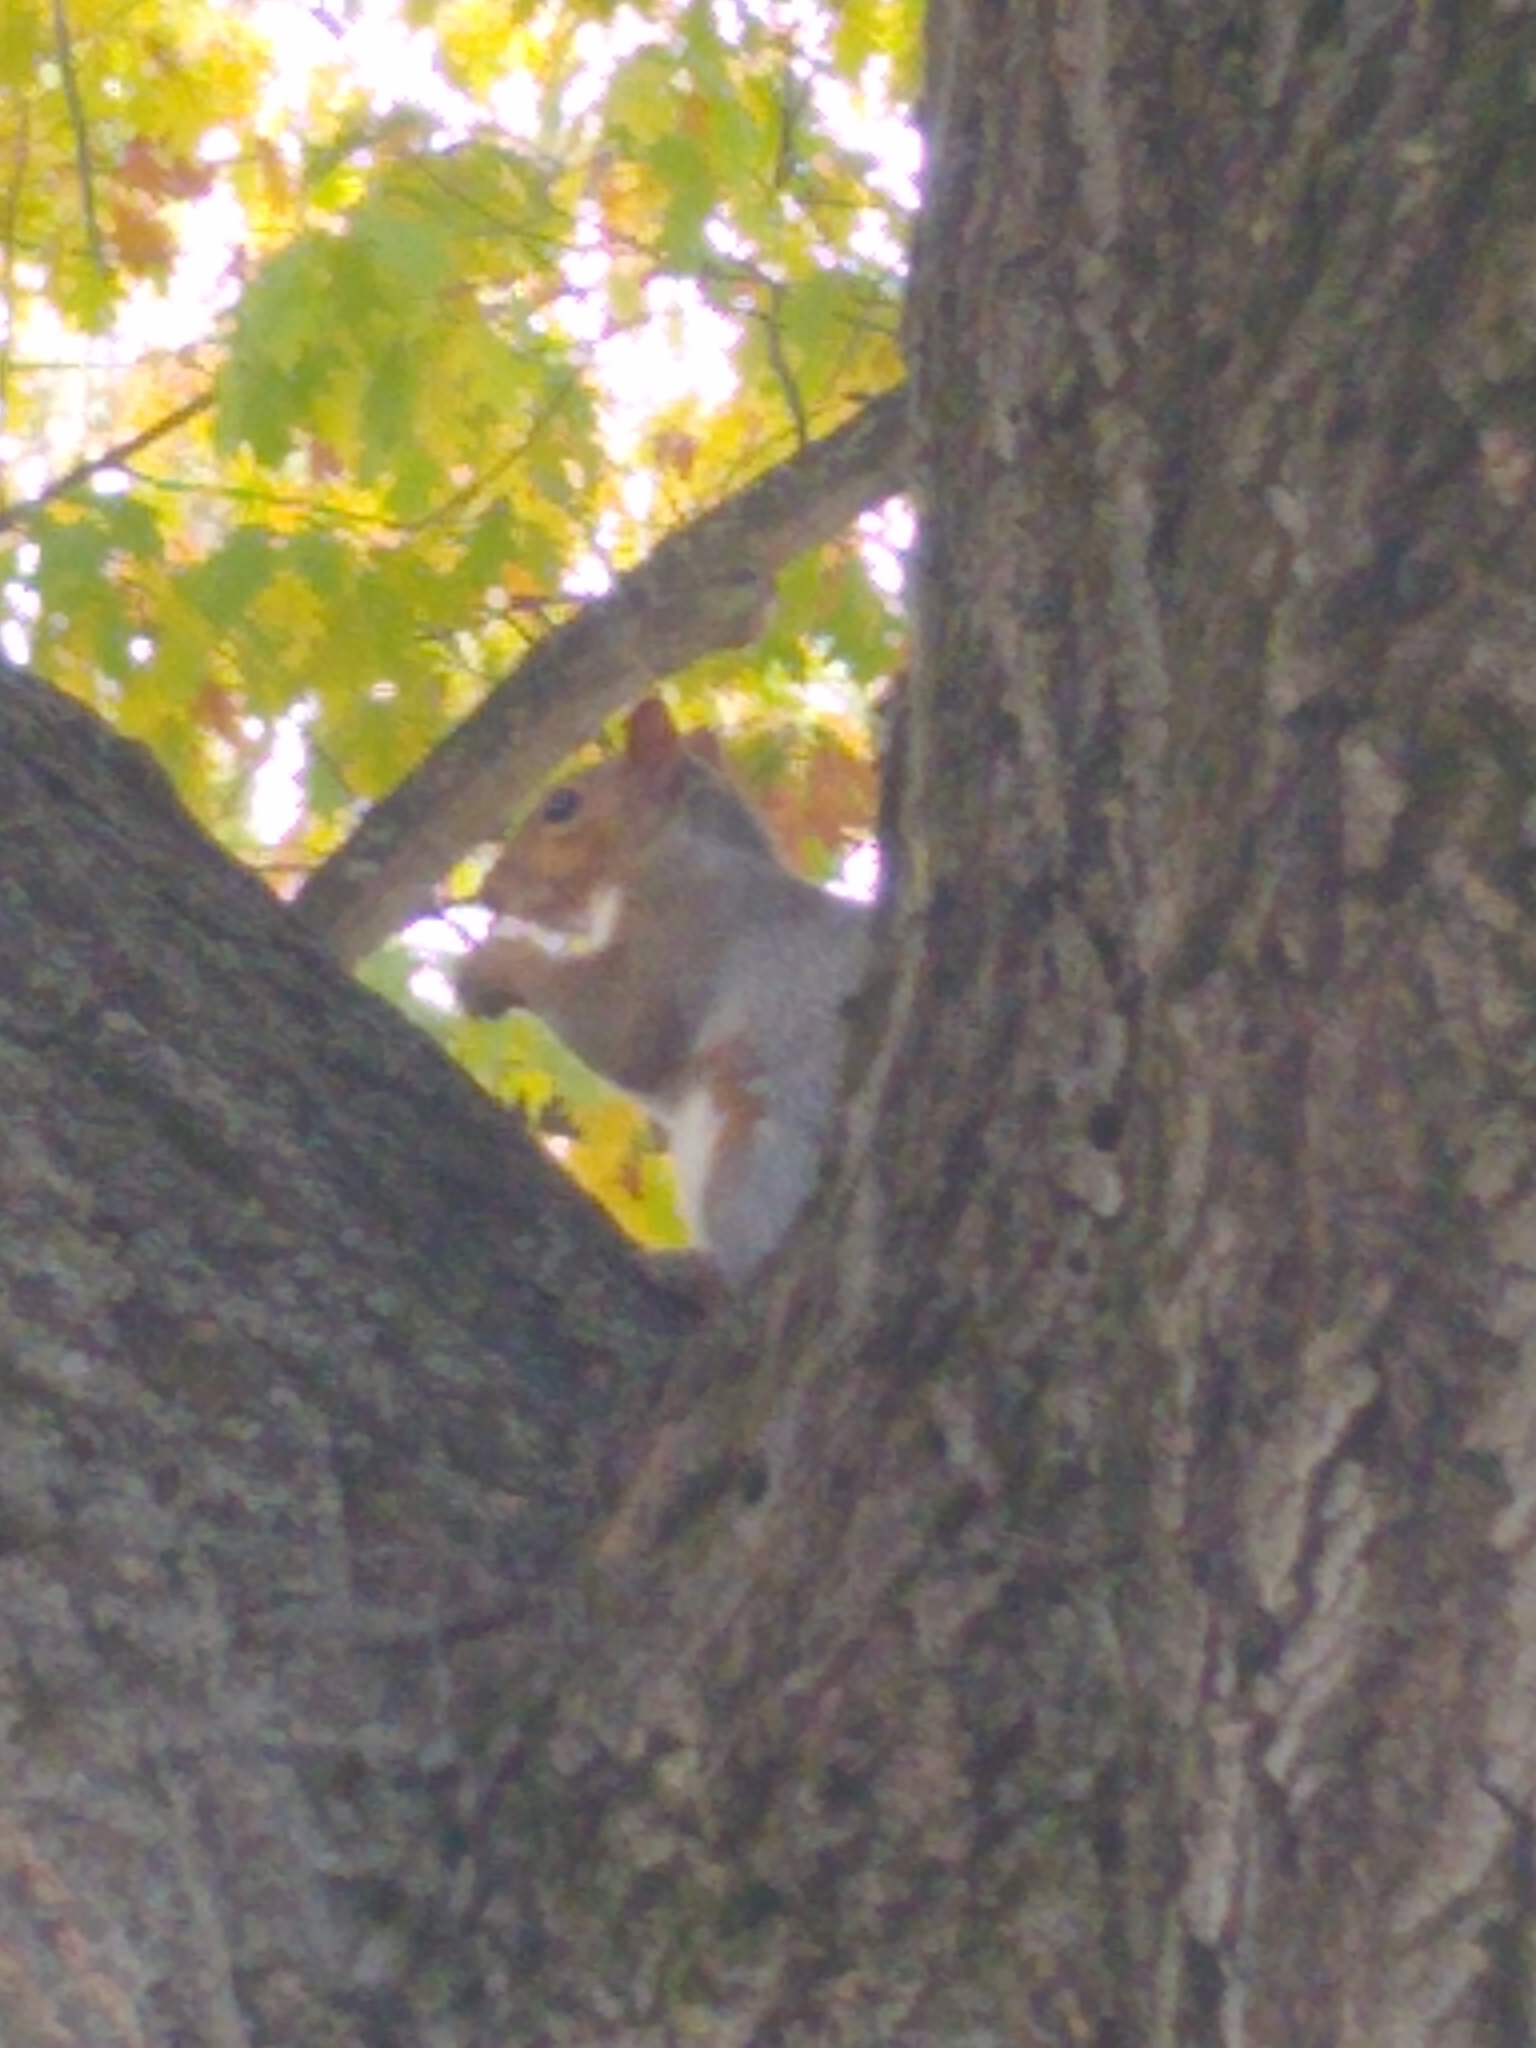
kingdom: Animalia
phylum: Chordata
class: Mammalia
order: Rodentia
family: Sciuridae
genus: Sciurus
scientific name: Sciurus carolinensis
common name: Eastern gray squirrel
